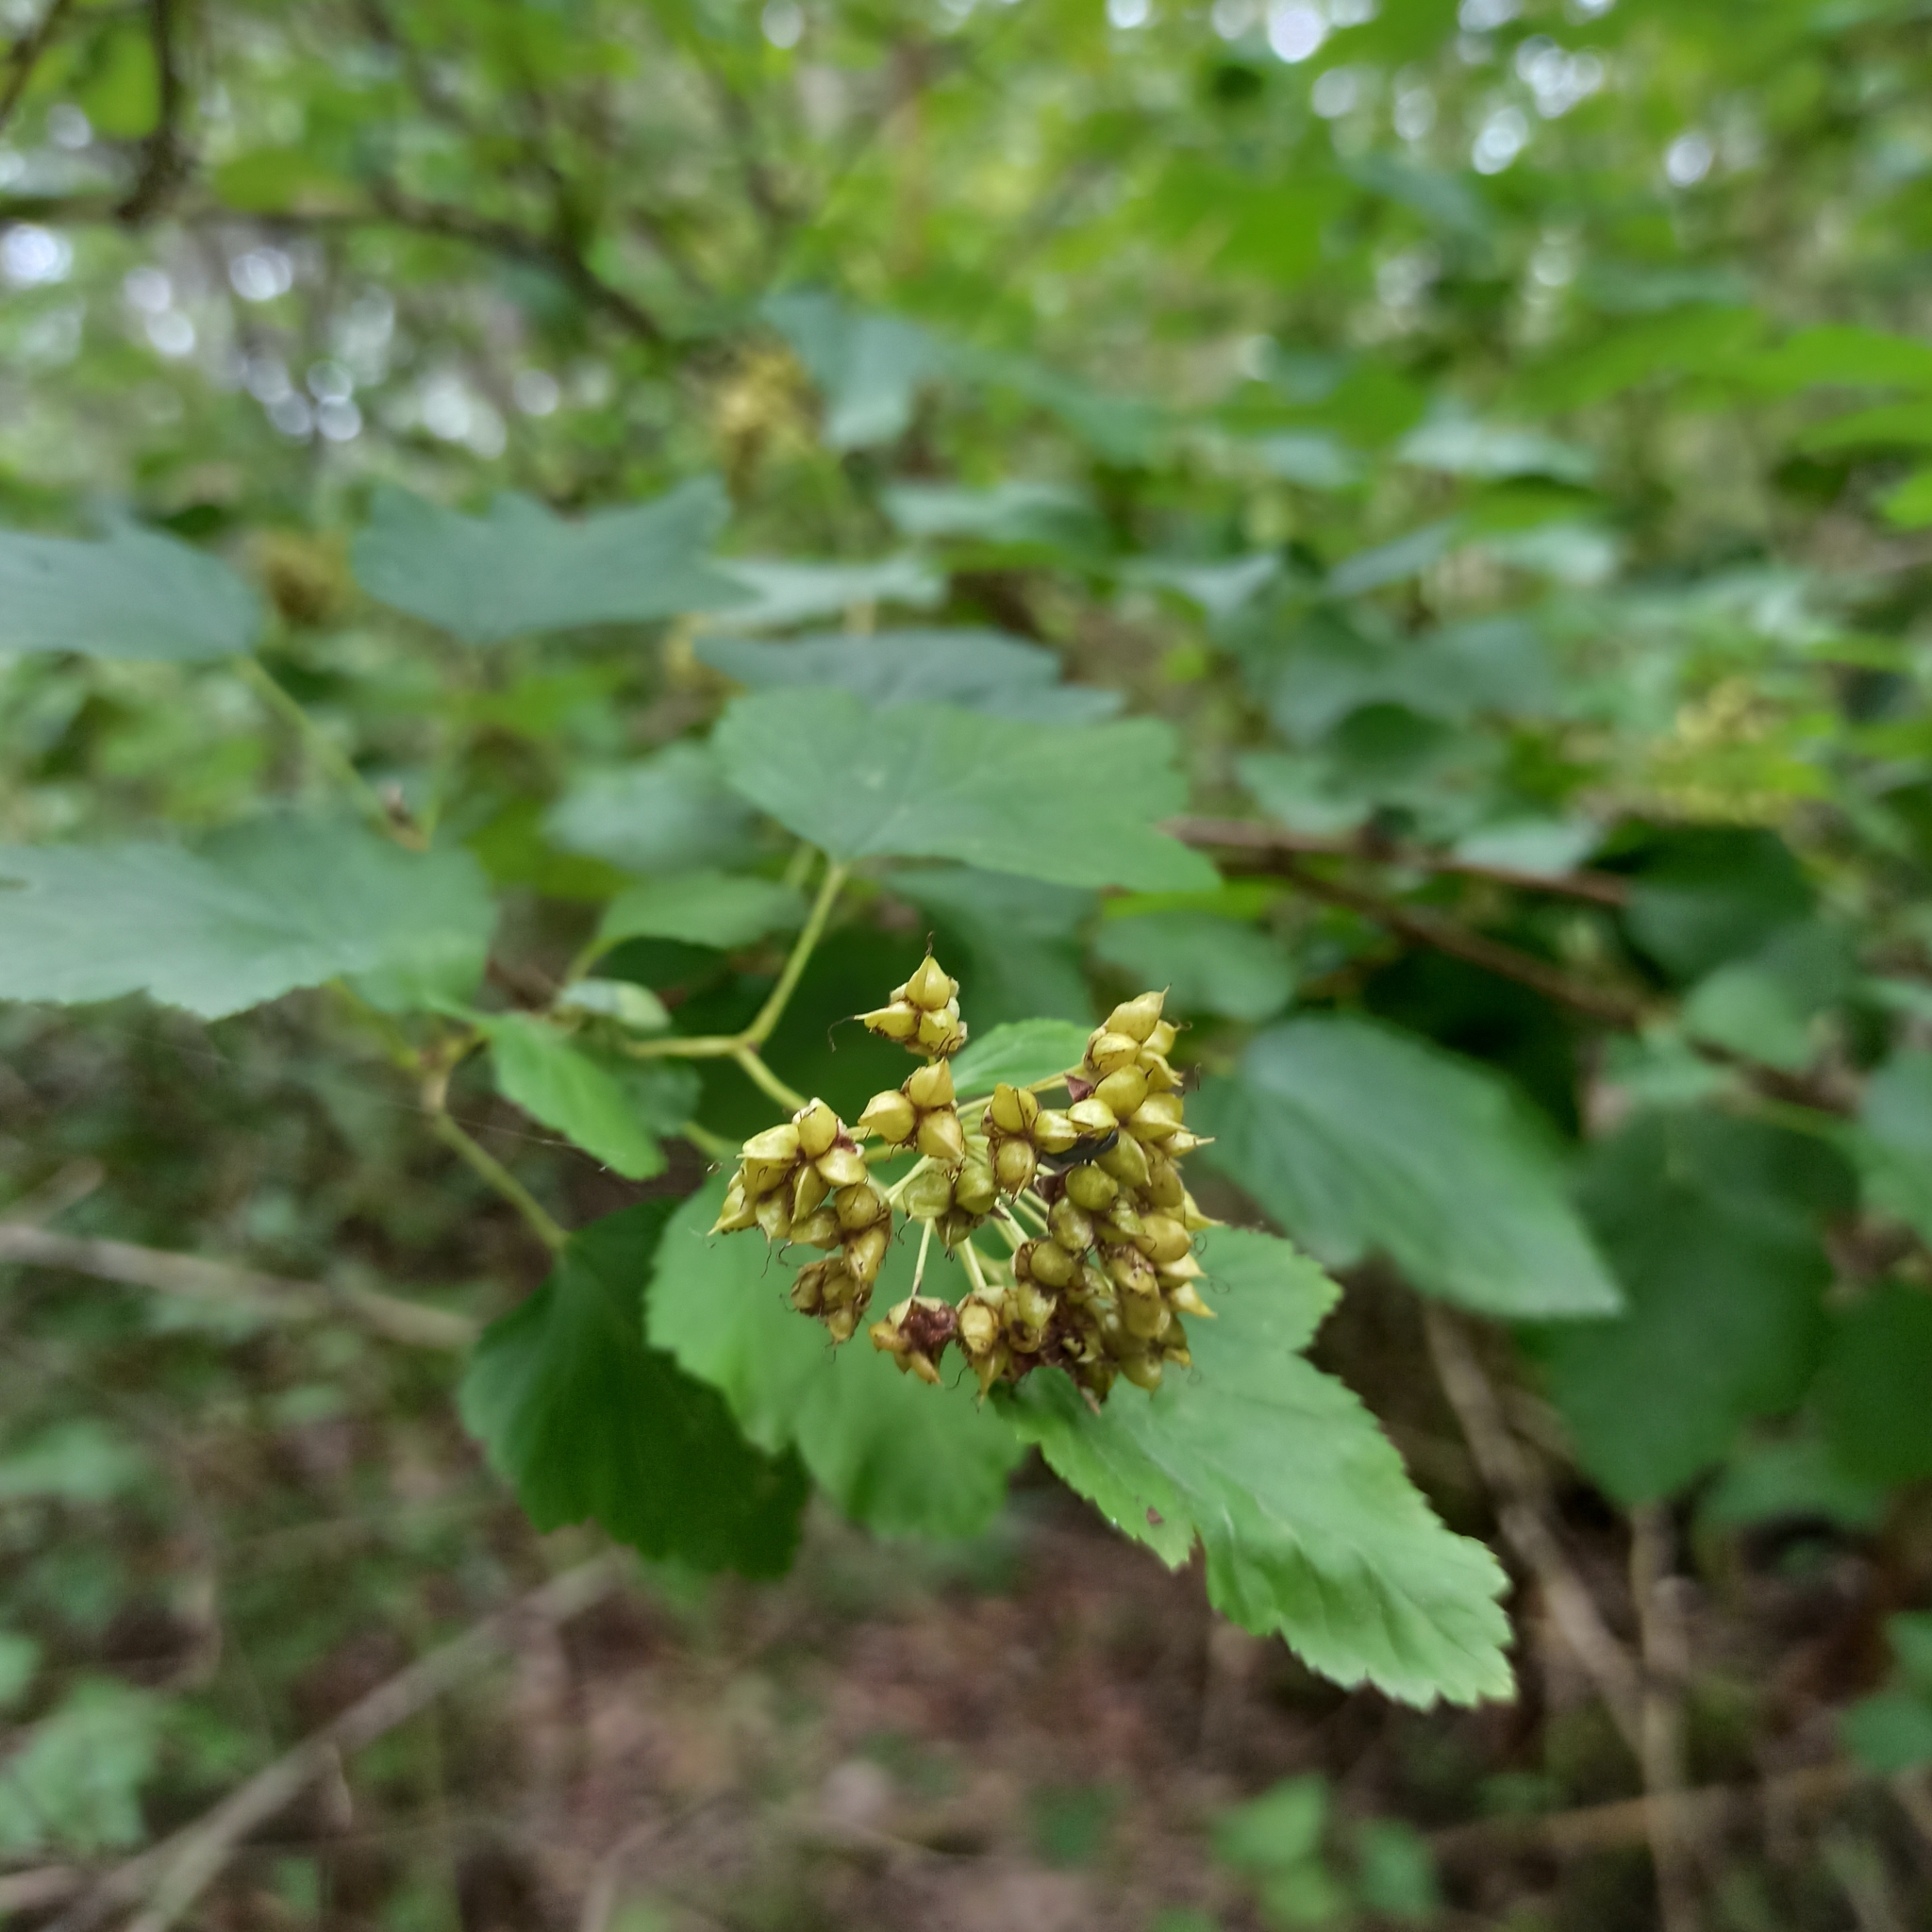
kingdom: Plantae
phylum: Tracheophyta
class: Magnoliopsida
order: Rosales
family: Rosaceae
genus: Physocarpus
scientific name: Physocarpus opulifolius
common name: Ninebark
